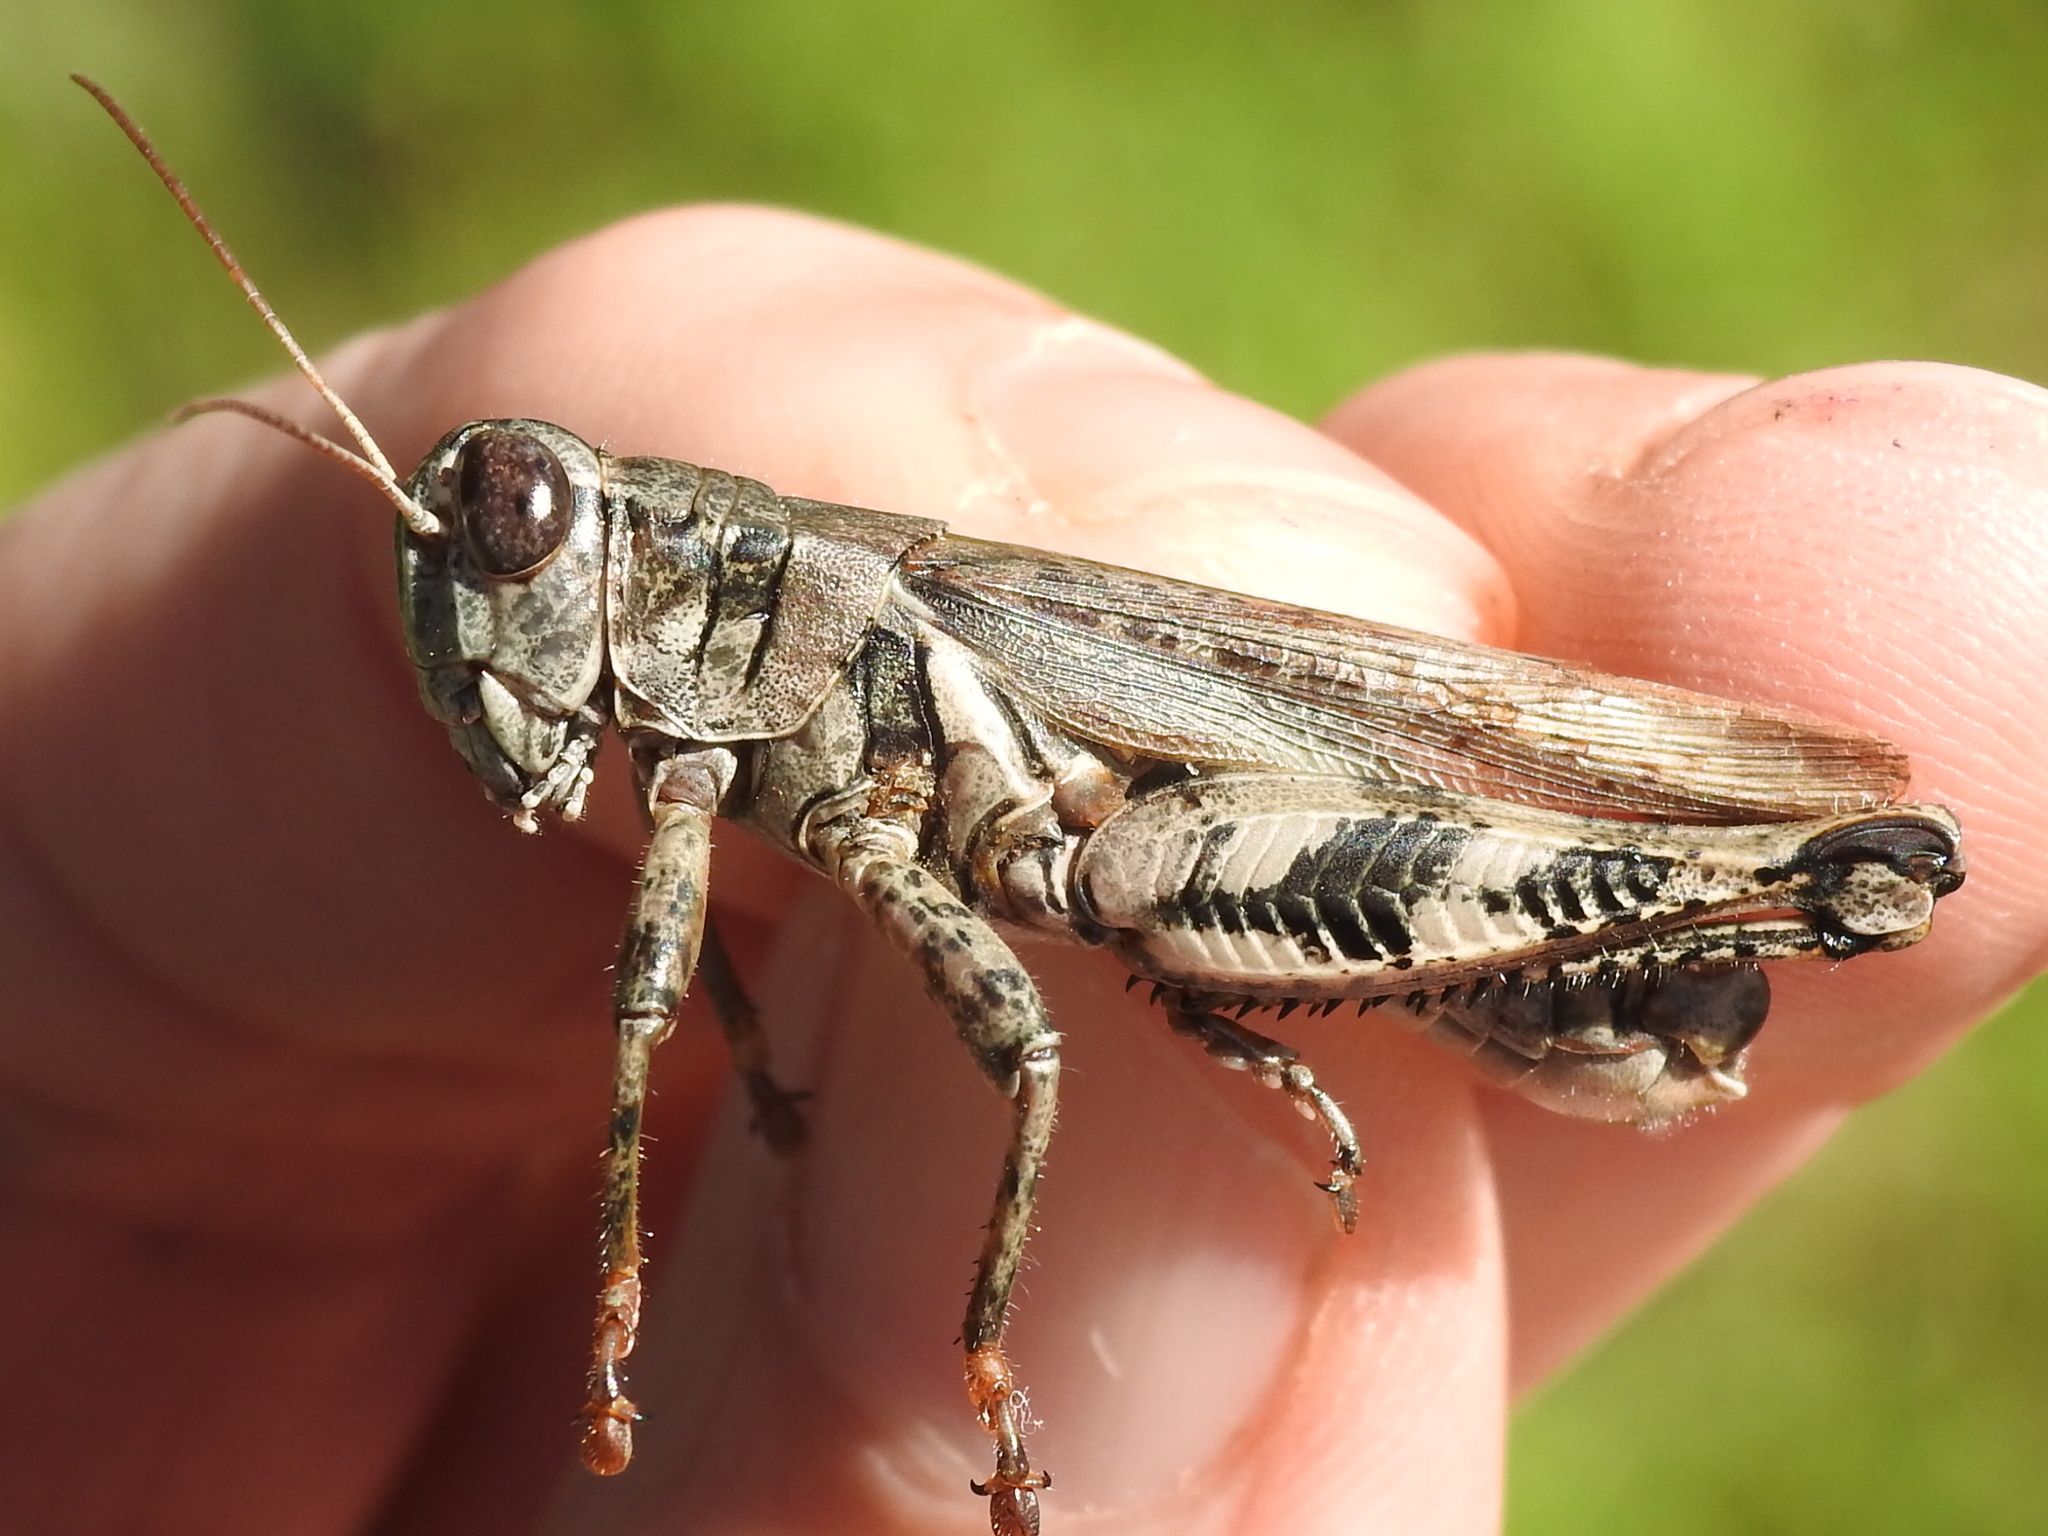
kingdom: Animalia
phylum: Arthropoda
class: Insecta
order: Orthoptera
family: Acrididae
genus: Melanoplus
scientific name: Melanoplus ponderosus
